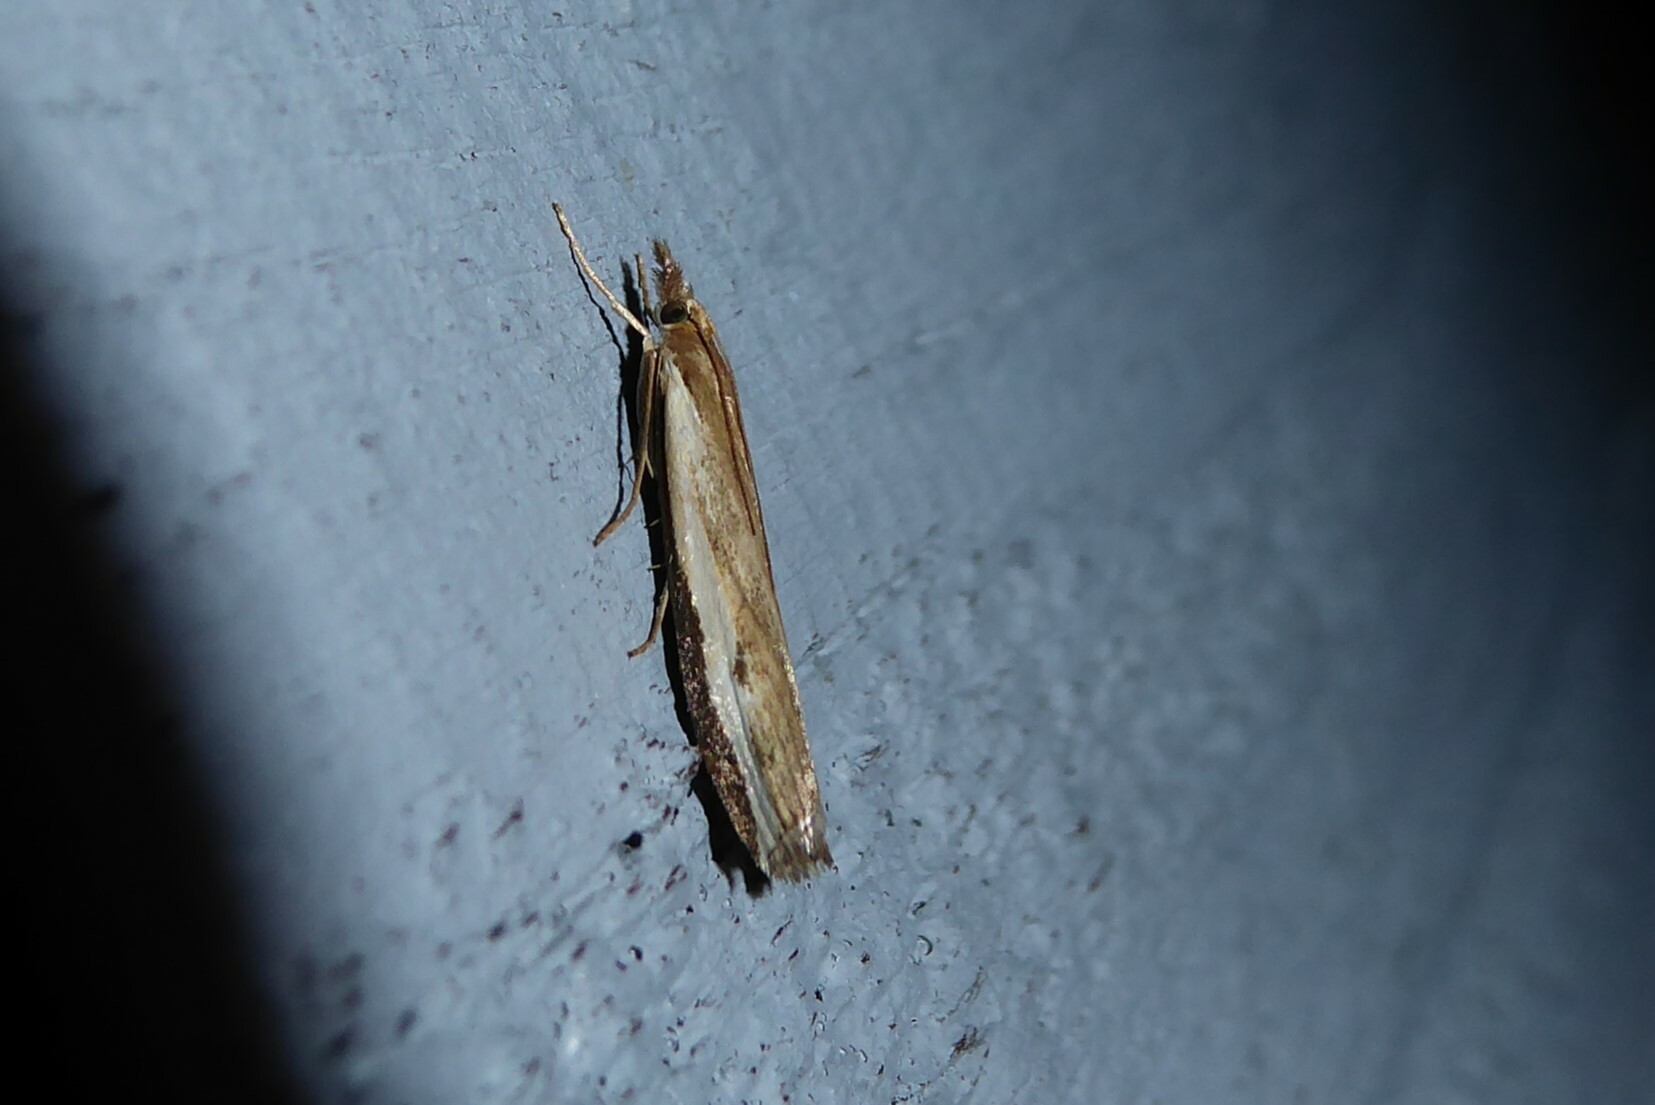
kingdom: Animalia
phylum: Arthropoda
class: Insecta
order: Lepidoptera
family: Crambidae
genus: Orocrambus
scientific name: Orocrambus flexuosellus
